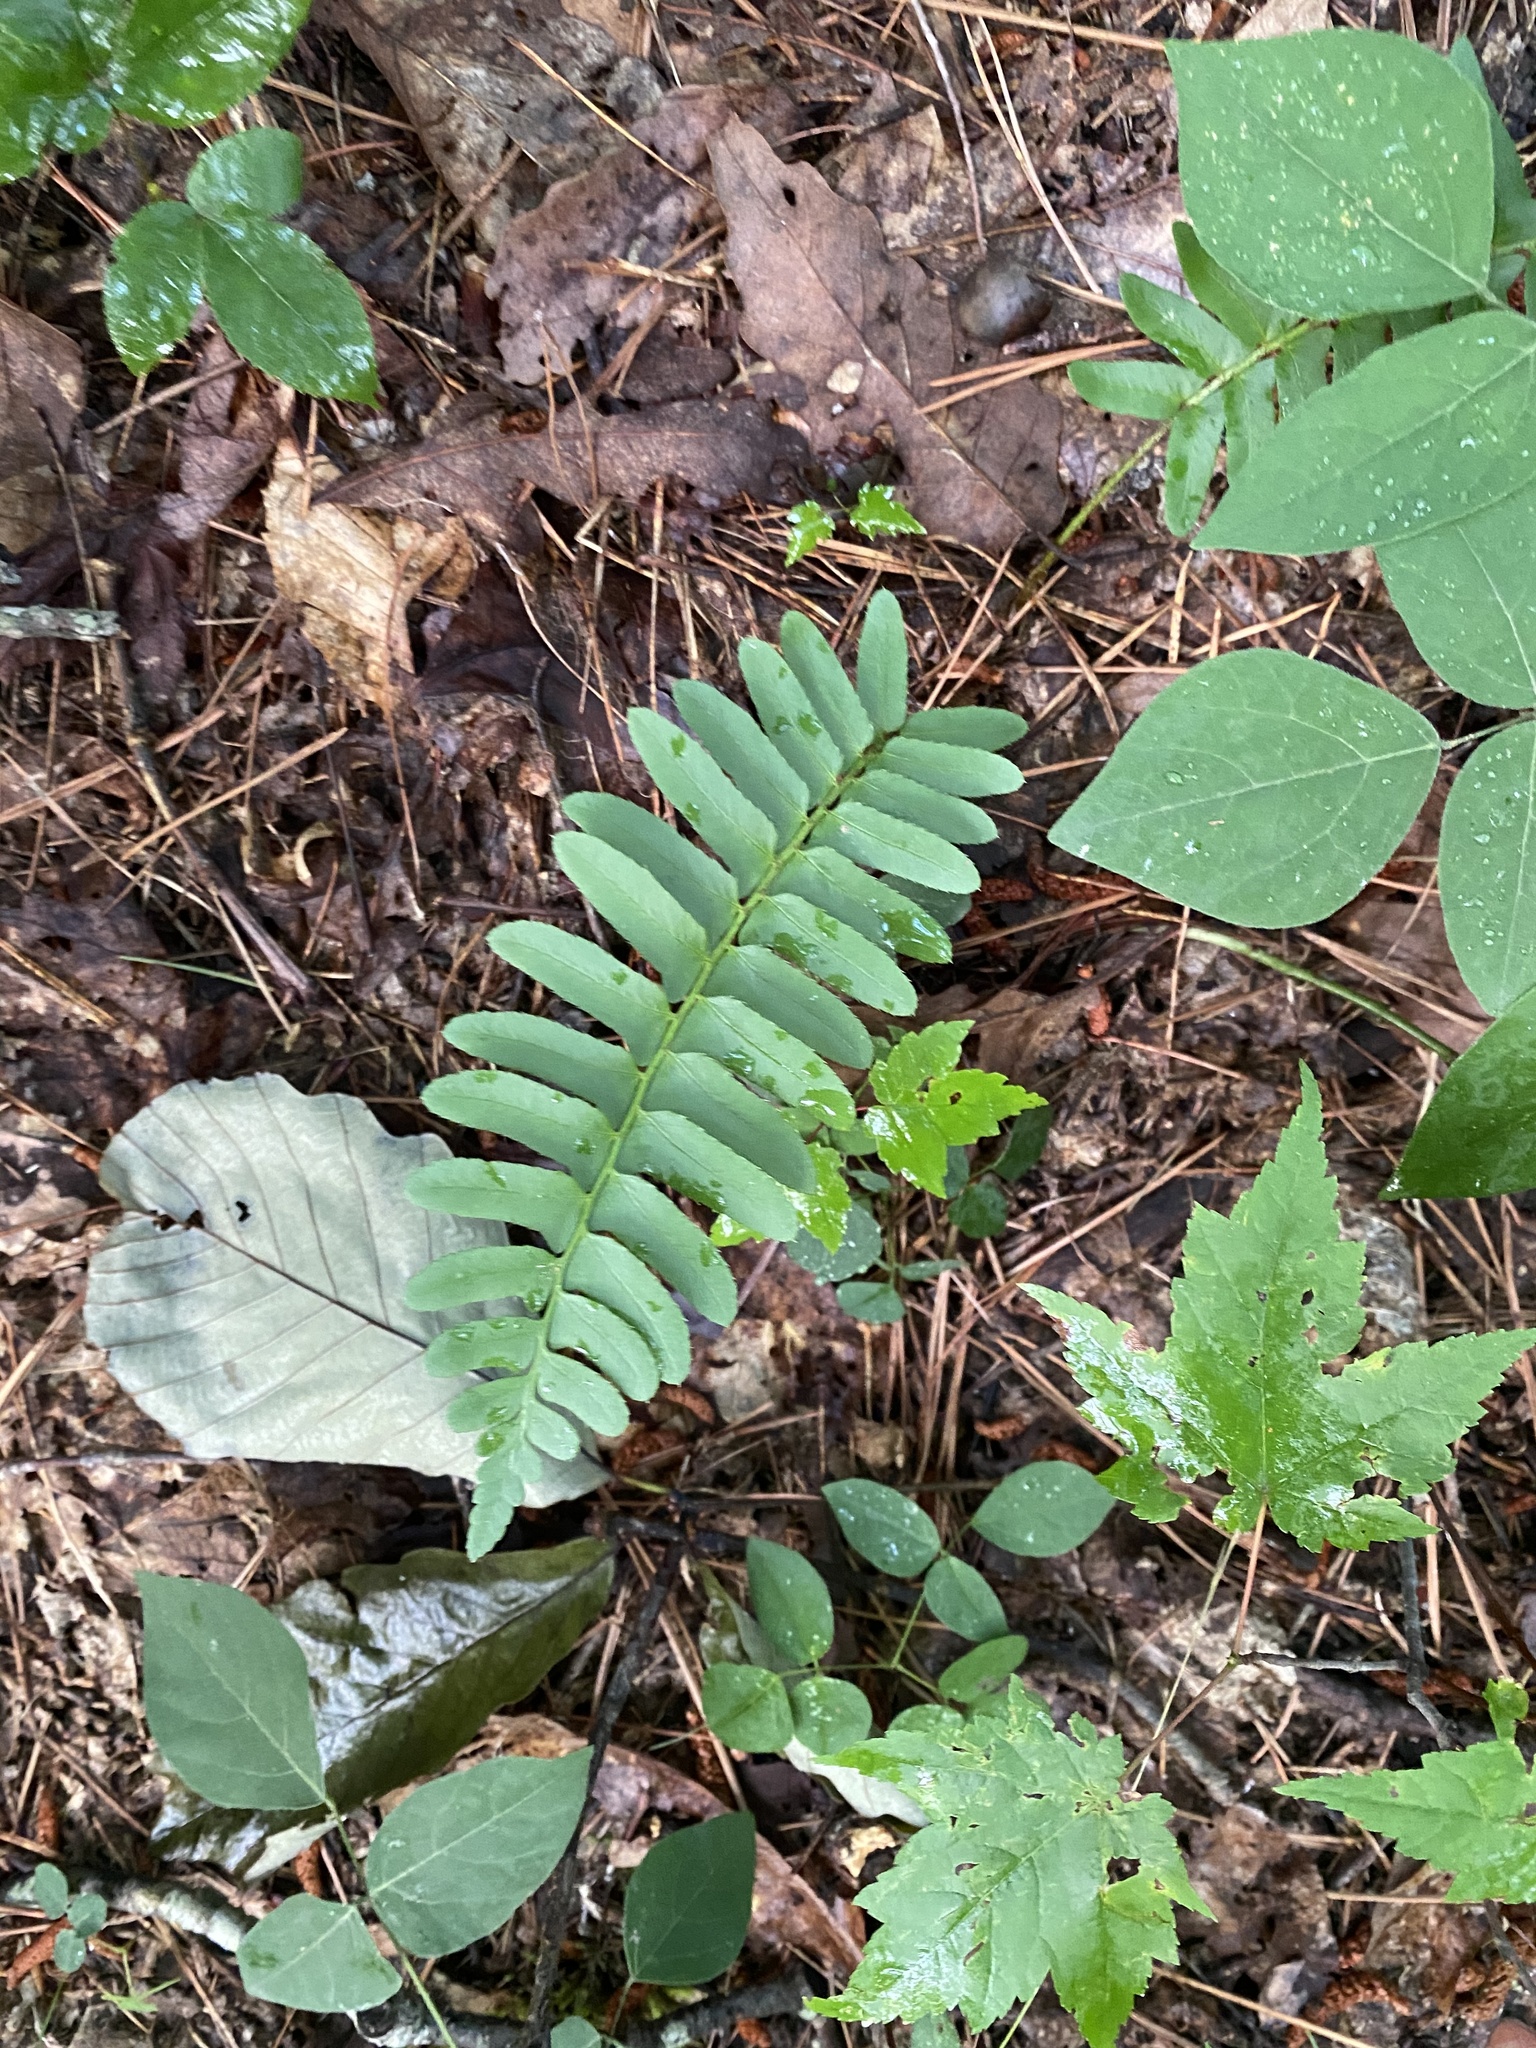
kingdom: Plantae
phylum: Tracheophyta
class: Polypodiopsida
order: Polypodiales
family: Dryopteridaceae
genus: Polystichum
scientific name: Polystichum acrostichoides
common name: Christmas fern
